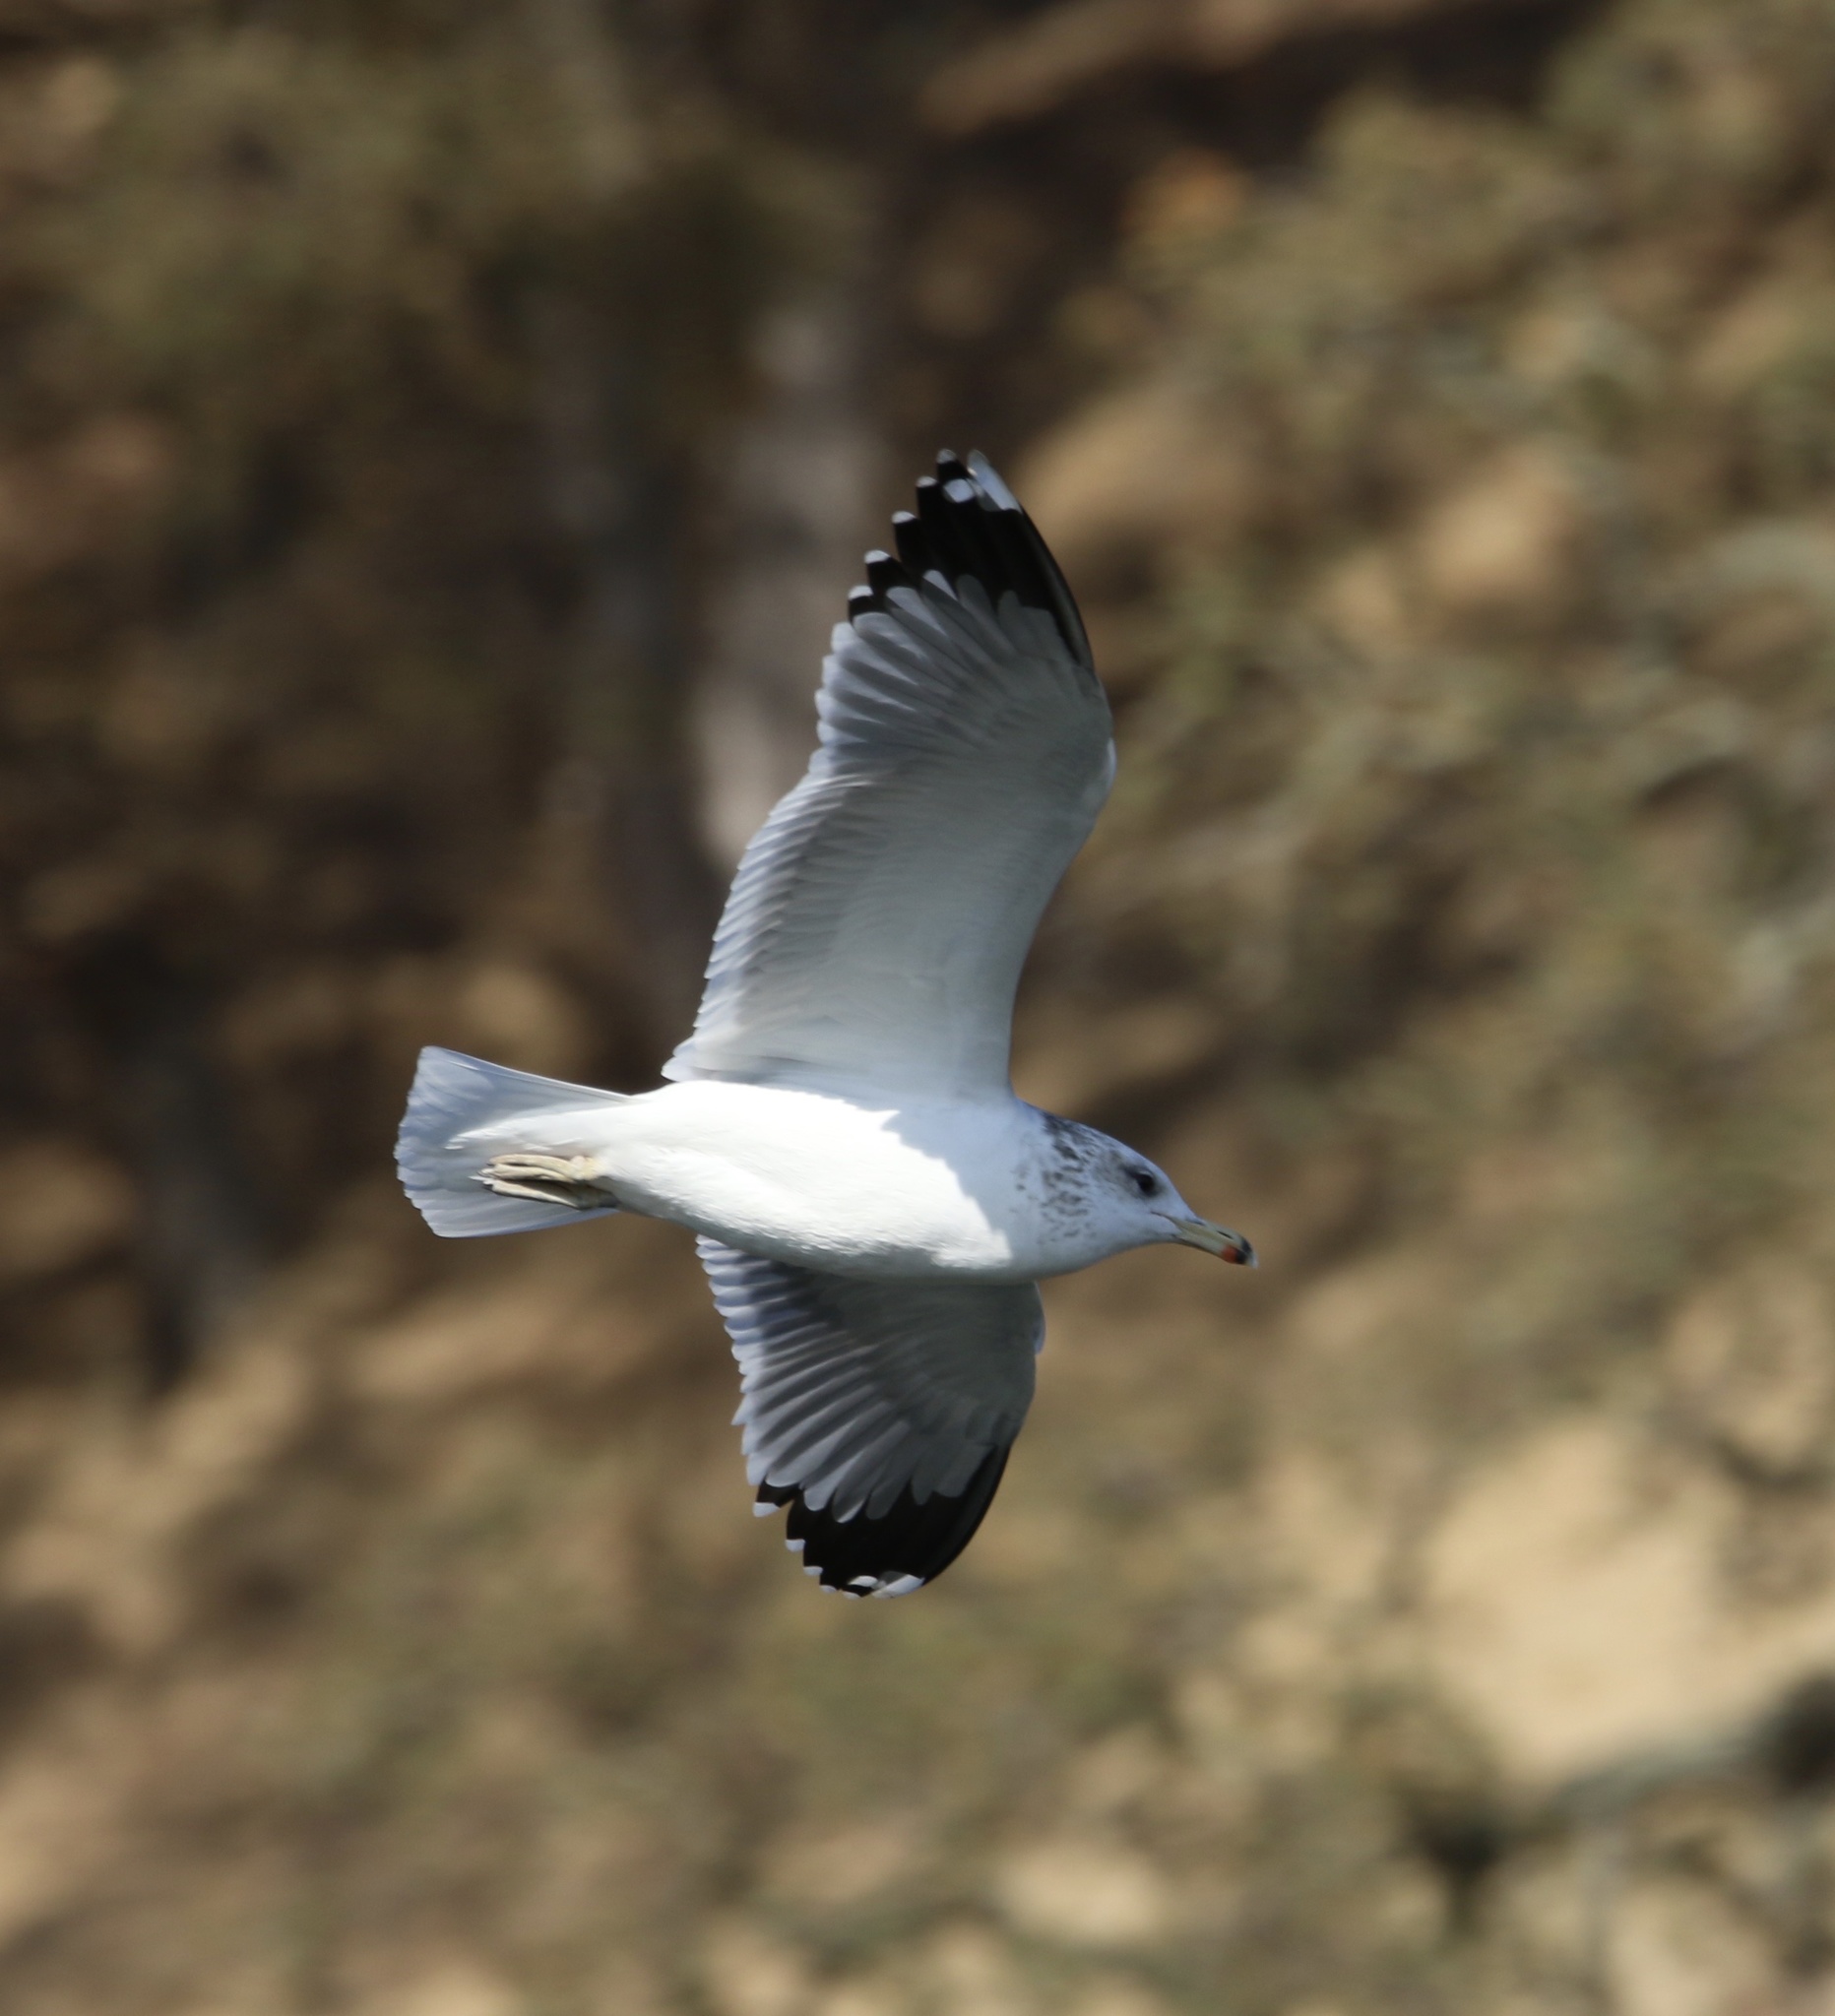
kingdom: Animalia
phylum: Chordata
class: Aves
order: Charadriiformes
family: Laridae
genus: Larus
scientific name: Larus californicus
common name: California gull
